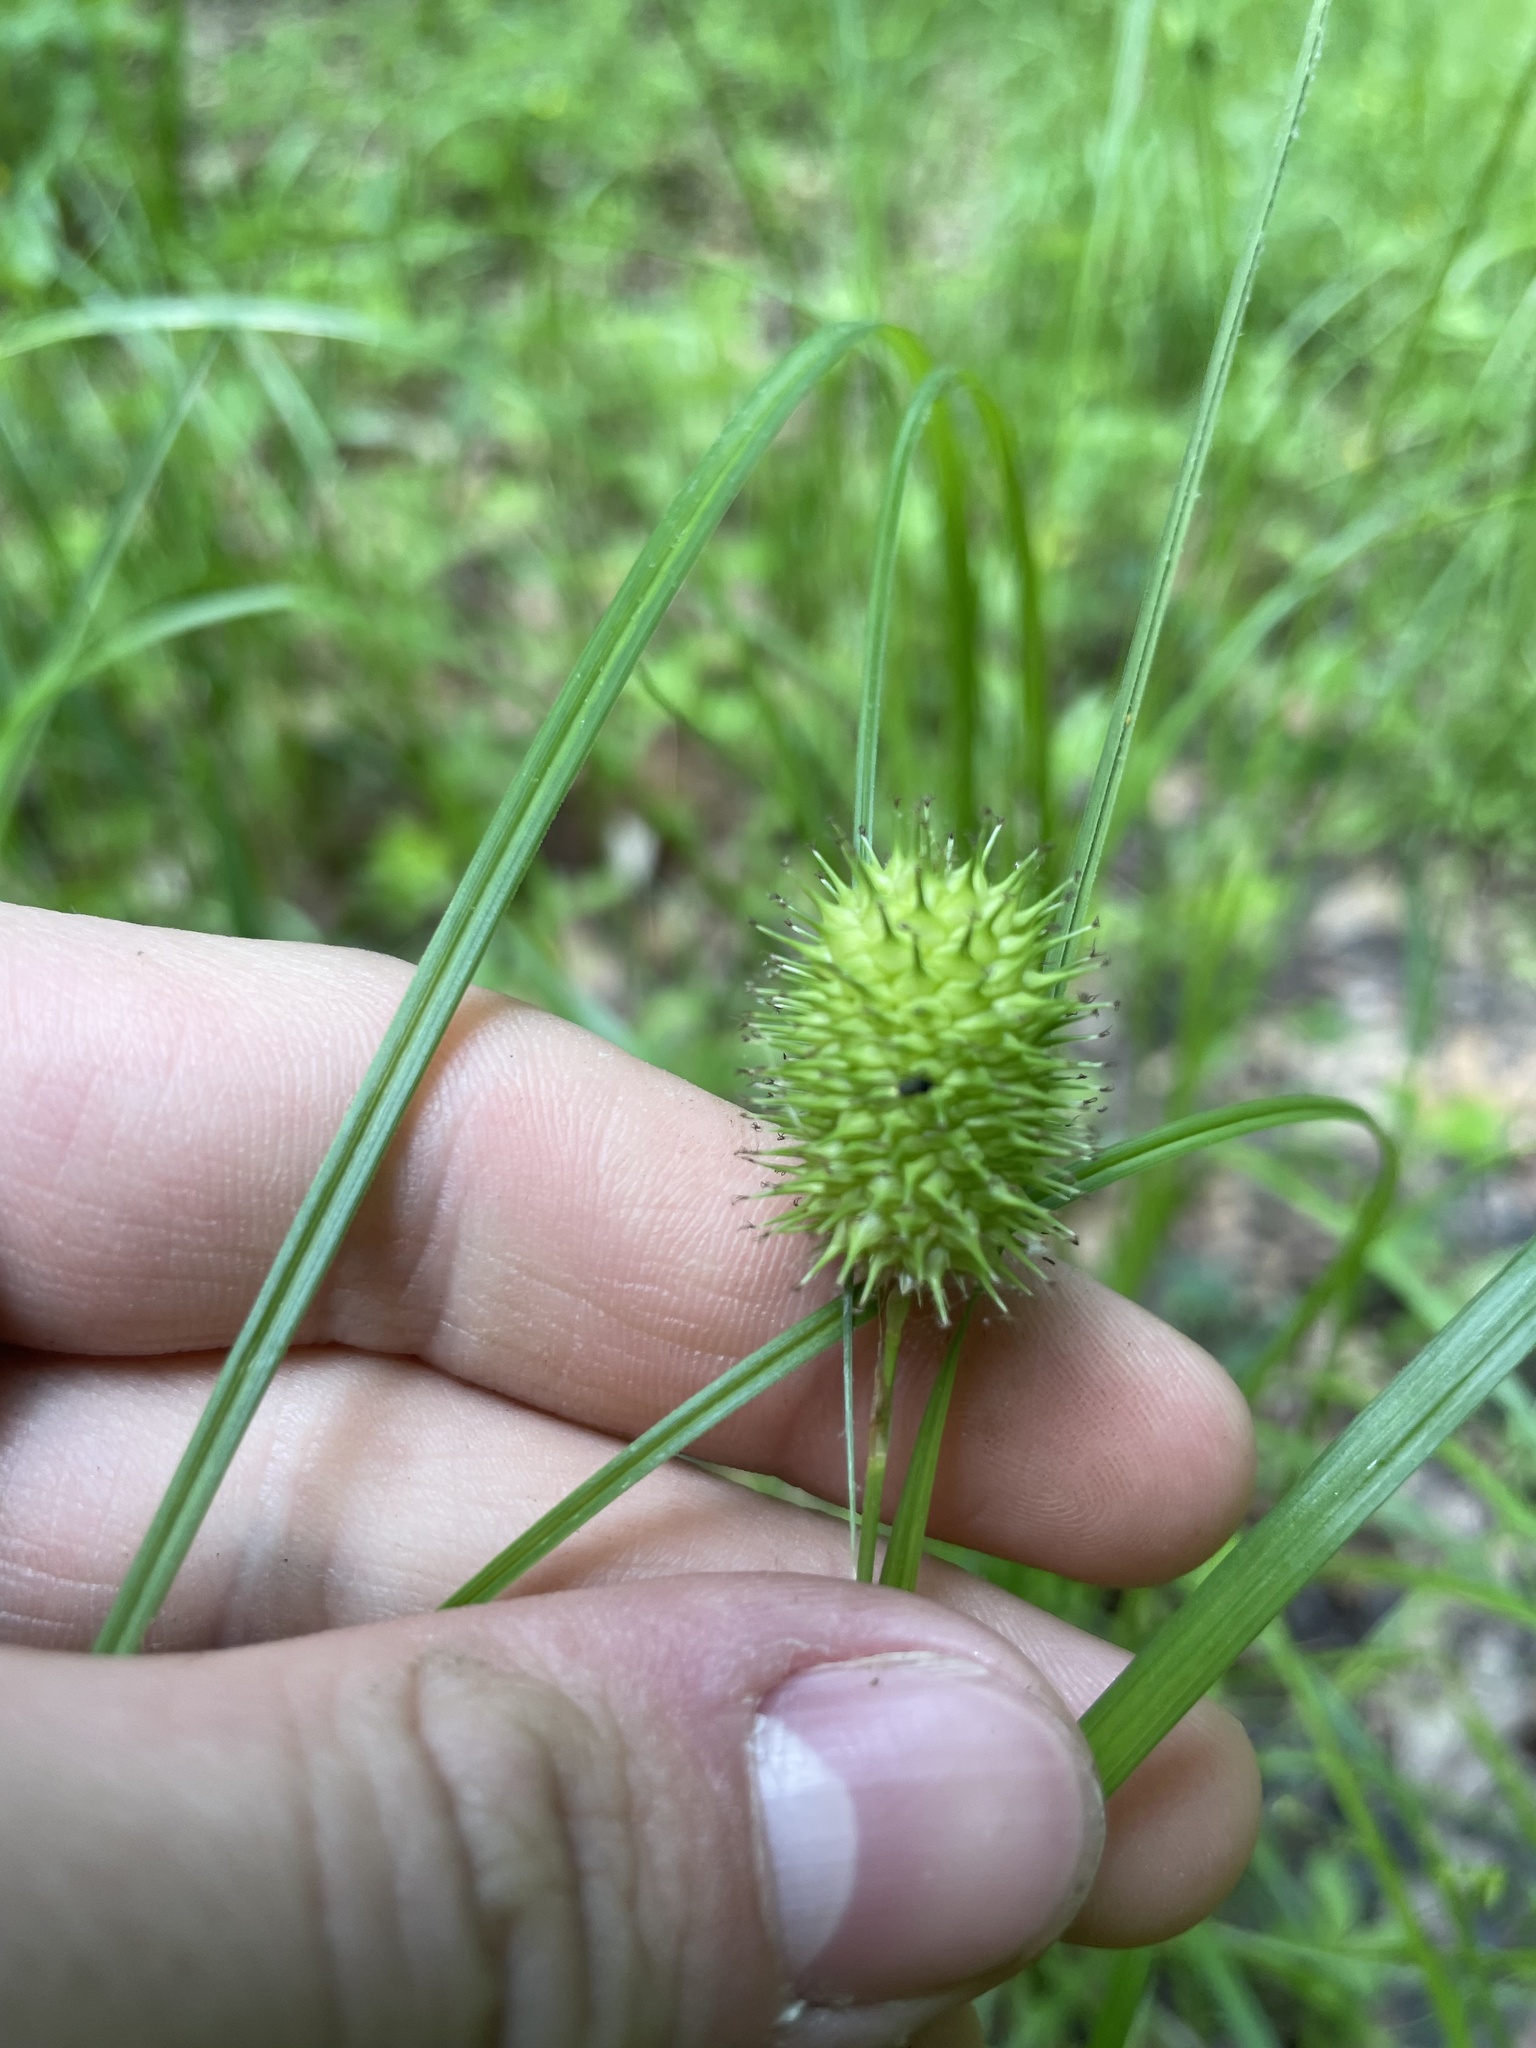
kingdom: Plantae
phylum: Tracheophyta
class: Liliopsida
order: Poales
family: Cyperaceae
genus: Carex
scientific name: Carex squarrosa
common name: Narrow-leaved cattail sedge
